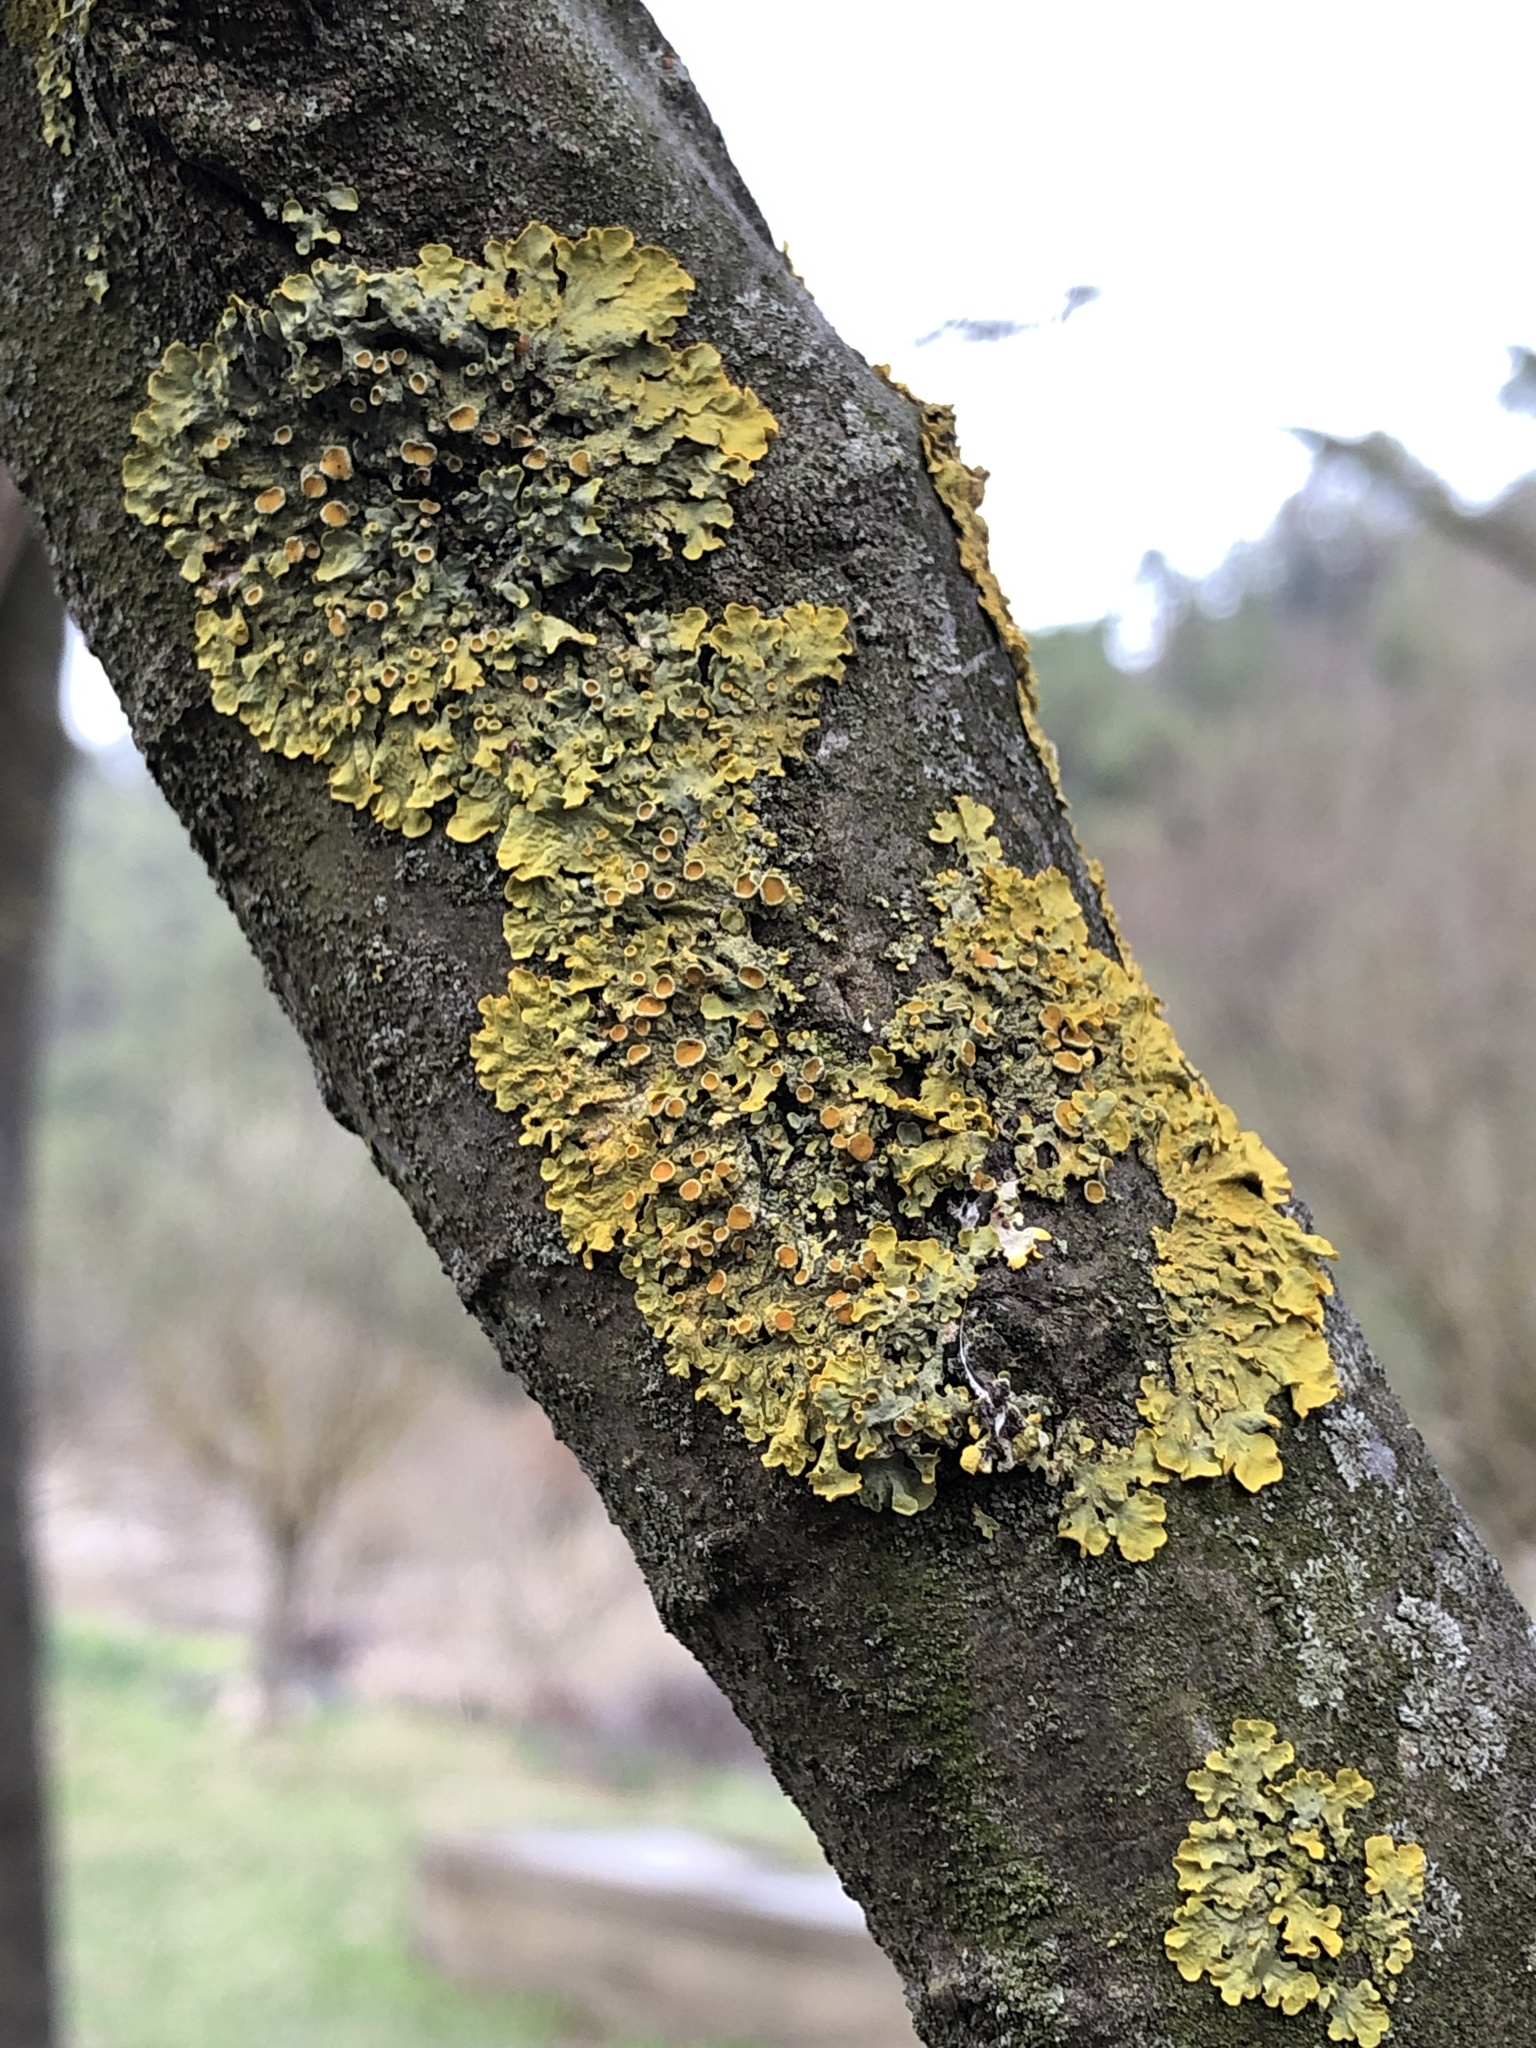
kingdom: Fungi
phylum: Ascomycota
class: Lecanoromycetes
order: Teloschistales
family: Teloschistaceae
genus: Xanthoria
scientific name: Xanthoria parietina
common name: Common orange lichen
